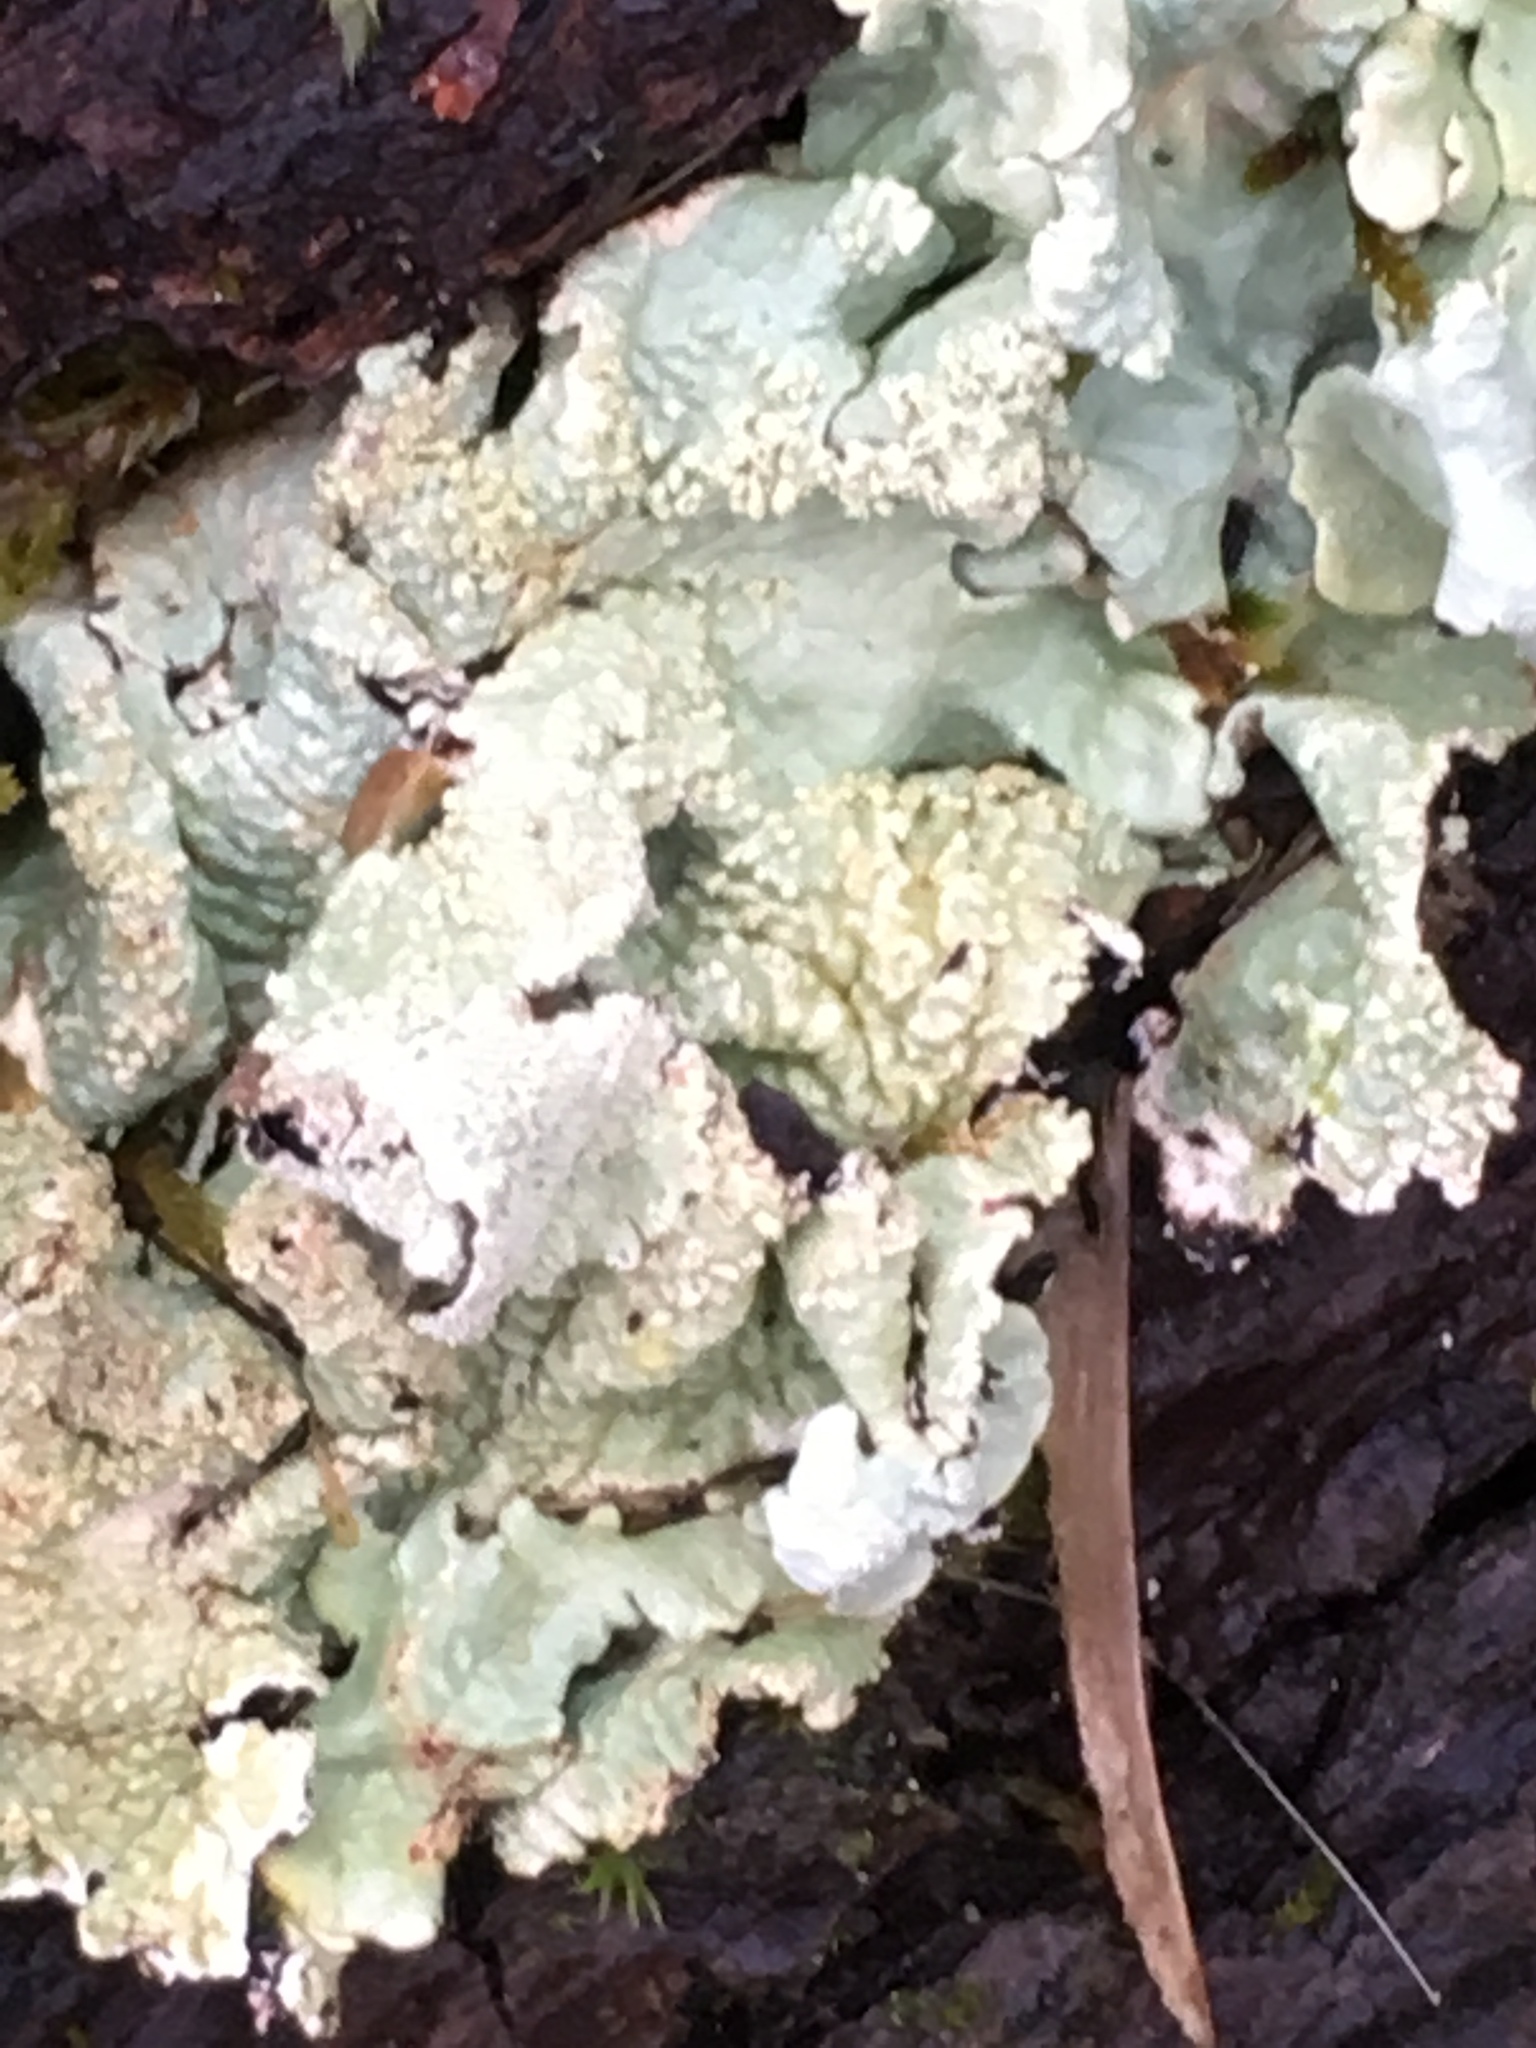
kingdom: Fungi
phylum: Ascomycota
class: Lecanoromycetes
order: Lecanorales
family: Parmeliaceae
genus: Flavoparmelia
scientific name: Flavoparmelia caperata
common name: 40-mile per hour lichen
